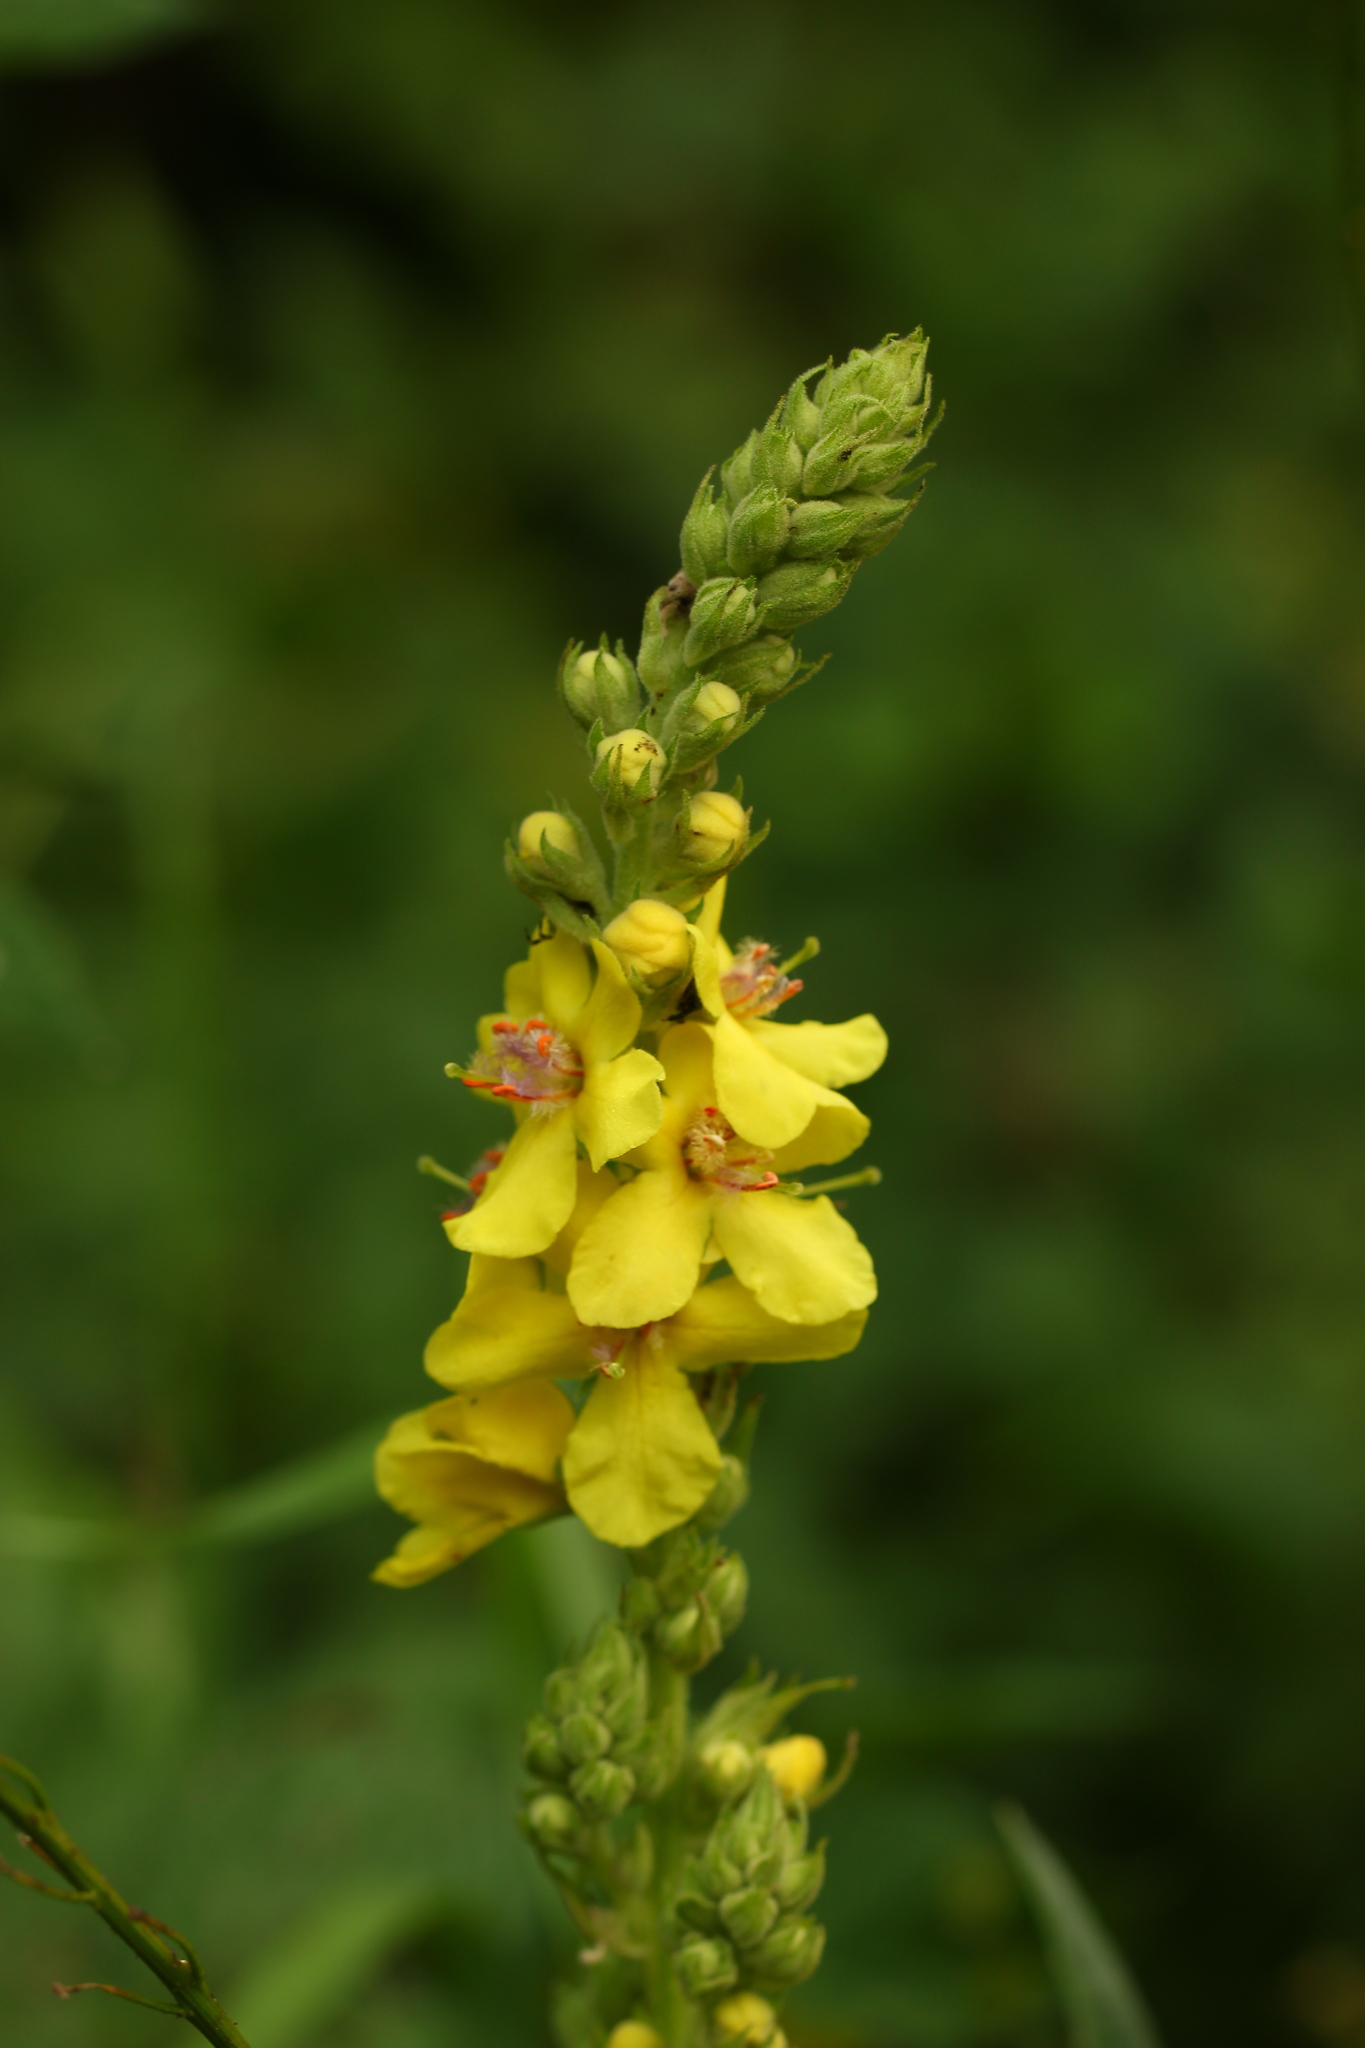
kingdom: Plantae
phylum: Tracheophyta
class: Magnoliopsida
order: Lamiales
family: Scrophulariaceae
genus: Verbascum
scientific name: Verbascum pyramidatum
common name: Caucasian mullein
